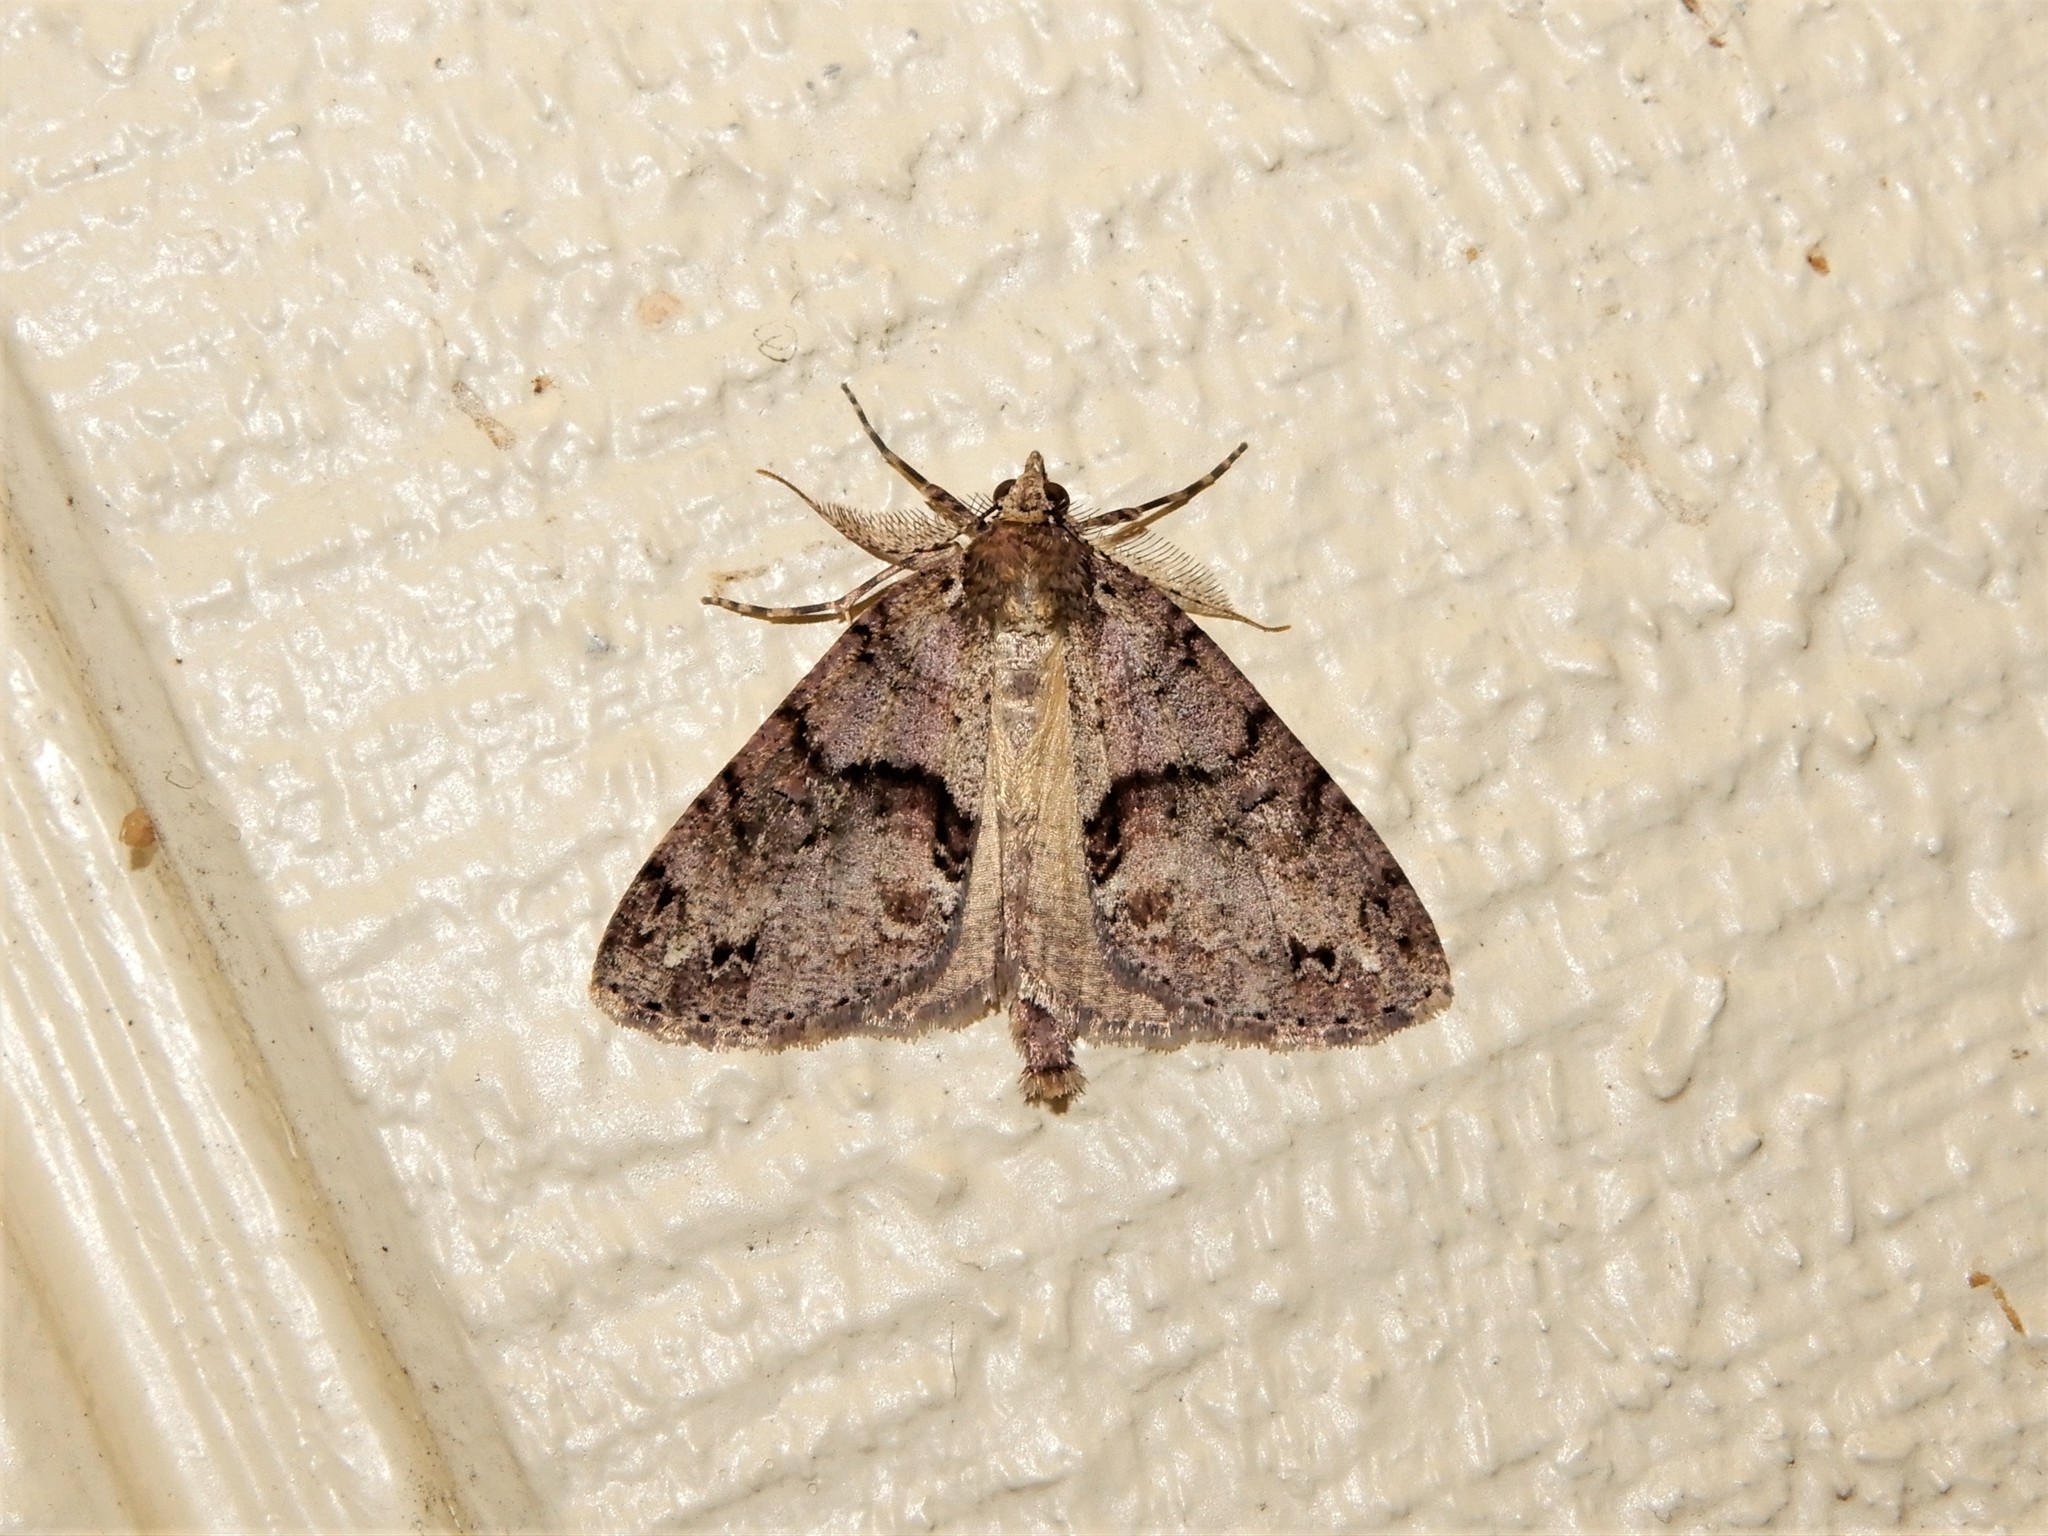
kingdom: Animalia
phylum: Arthropoda
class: Insecta
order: Lepidoptera
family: Geometridae
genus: Pseudocoremia
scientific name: Pseudocoremia suavis
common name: Common forest looper
